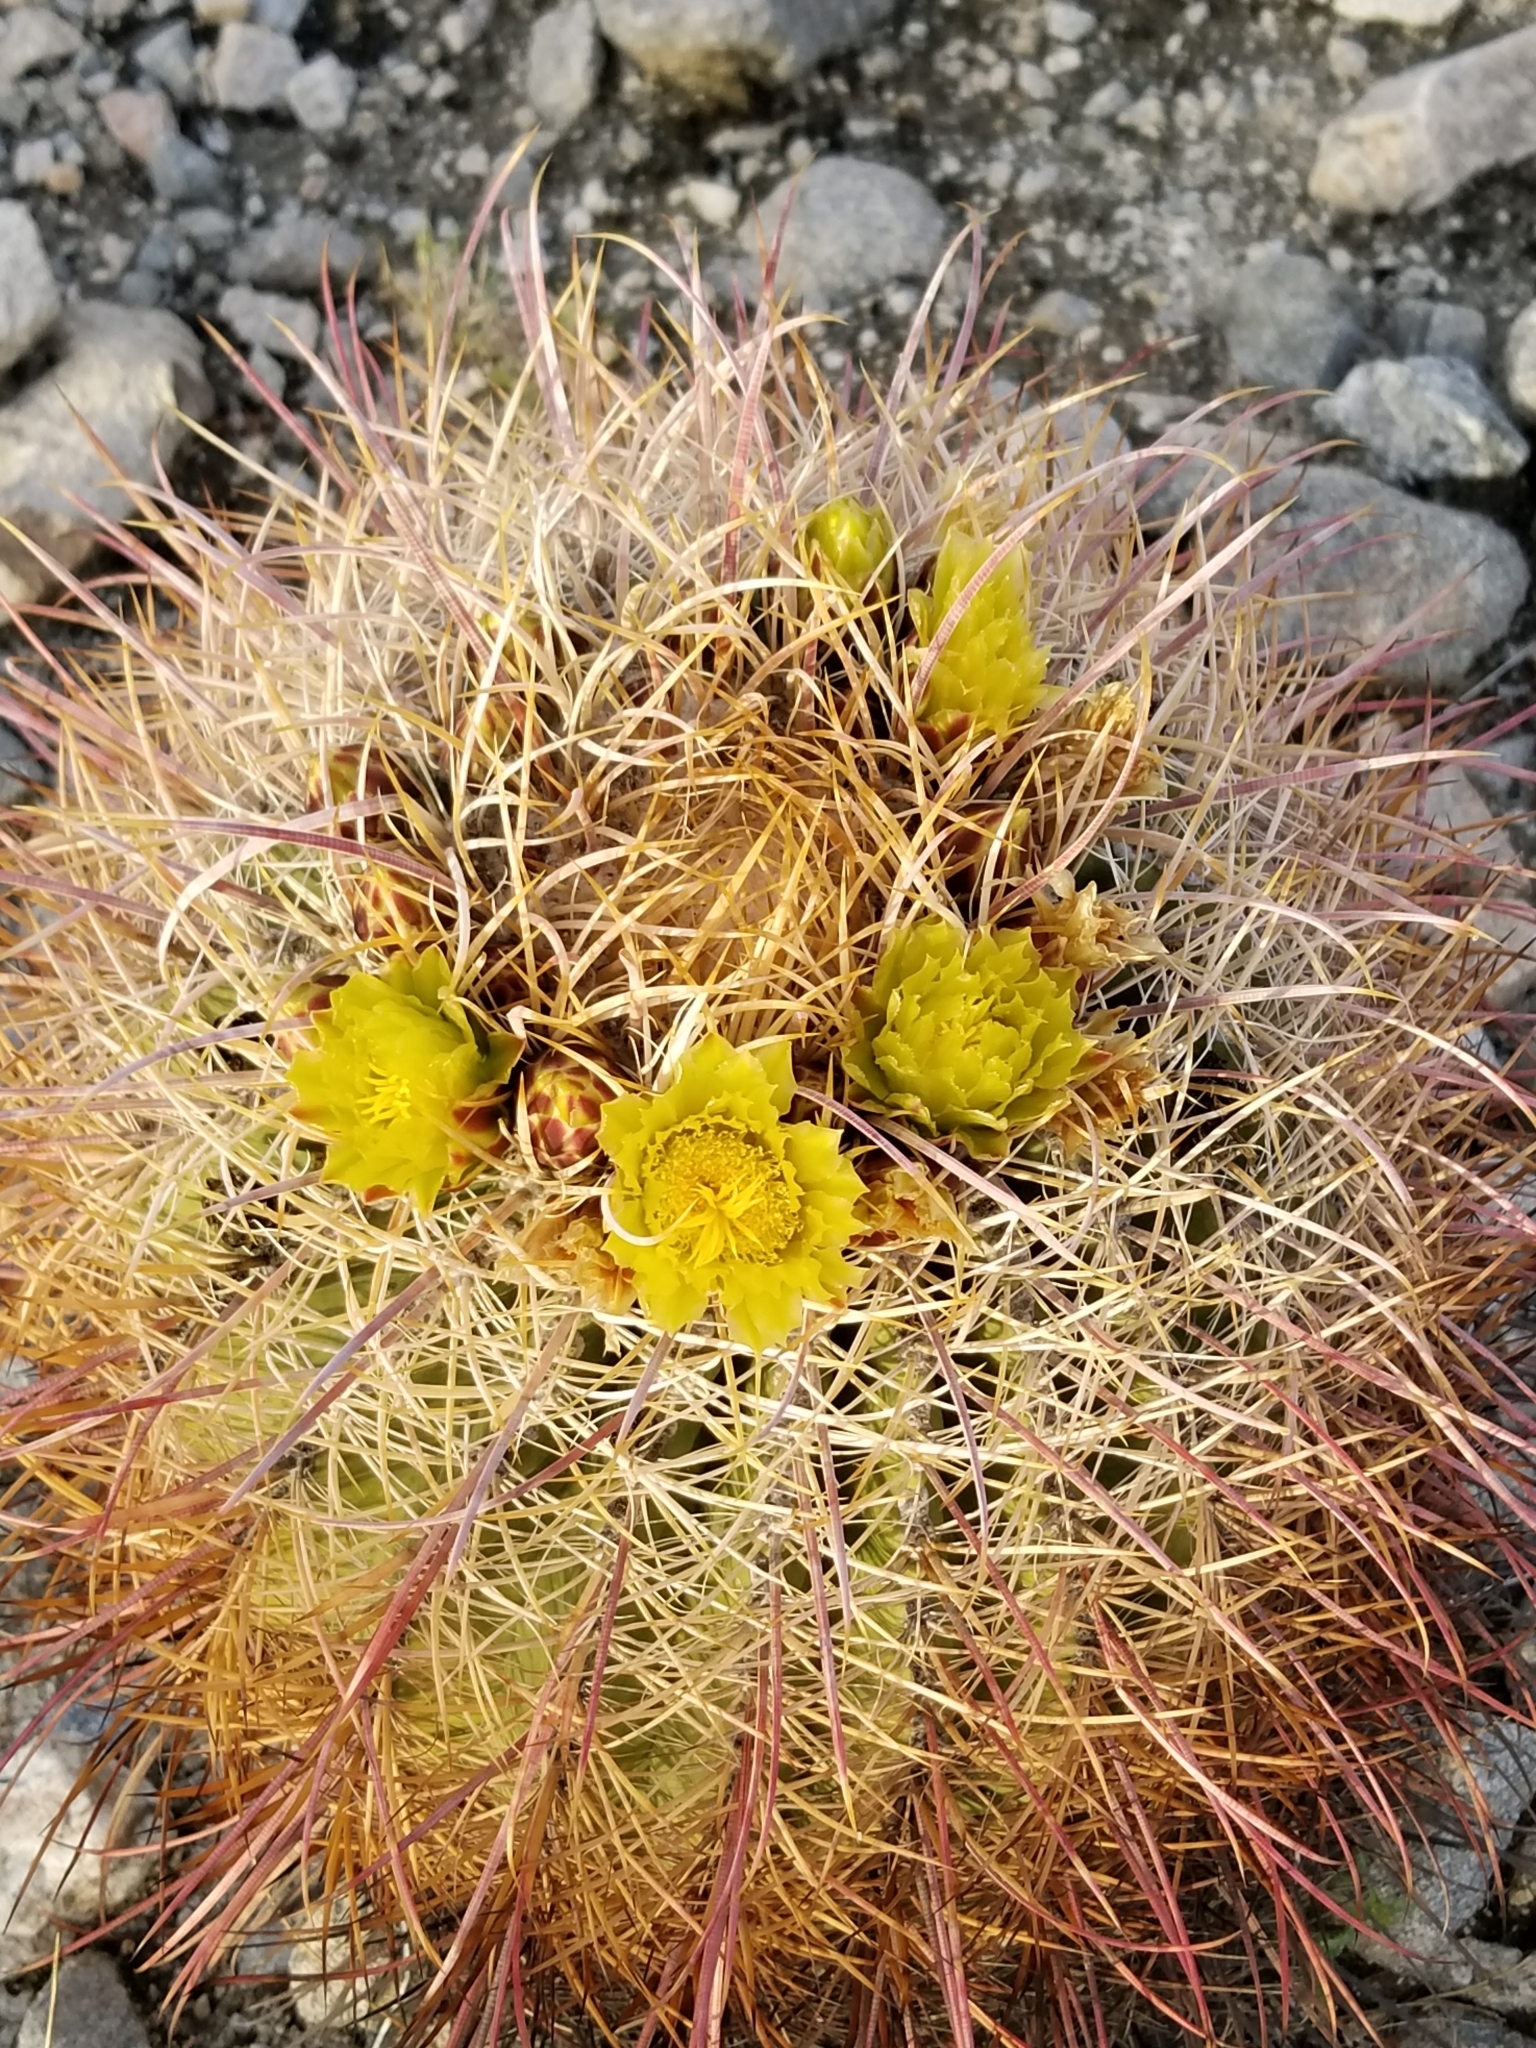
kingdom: Plantae
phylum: Tracheophyta
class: Magnoliopsida
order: Caryophyllales
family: Cactaceae
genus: Ferocactus
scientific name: Ferocactus cylindraceus
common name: California barrel cactus
